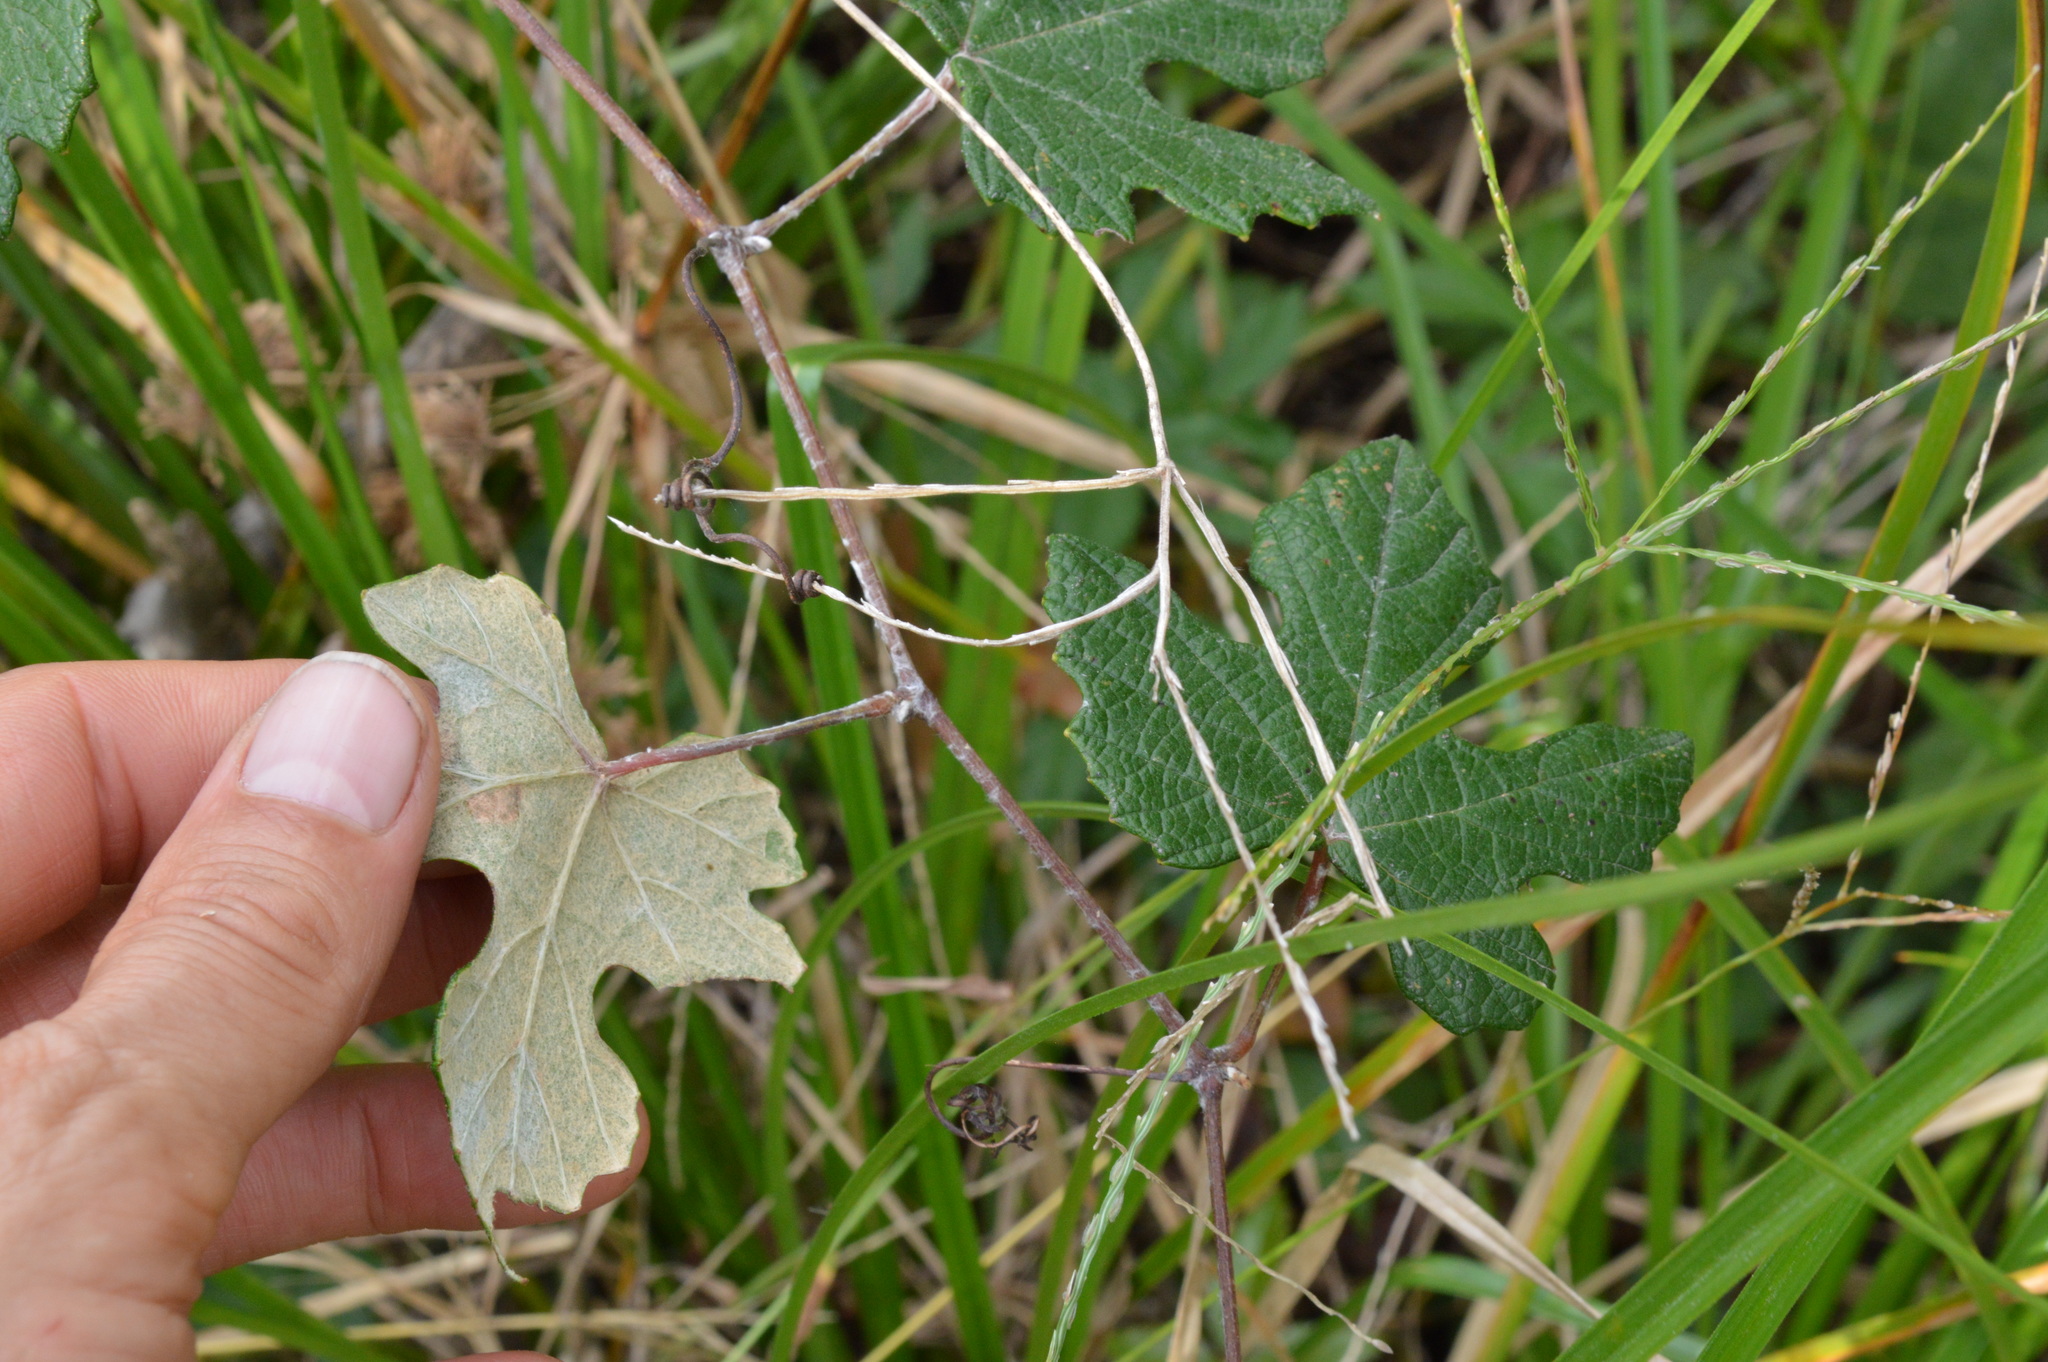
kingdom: Plantae
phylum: Tracheophyta
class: Magnoliopsida
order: Vitales
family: Vitaceae
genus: Vitis
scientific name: Vitis mustangensis
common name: Mustang grape
